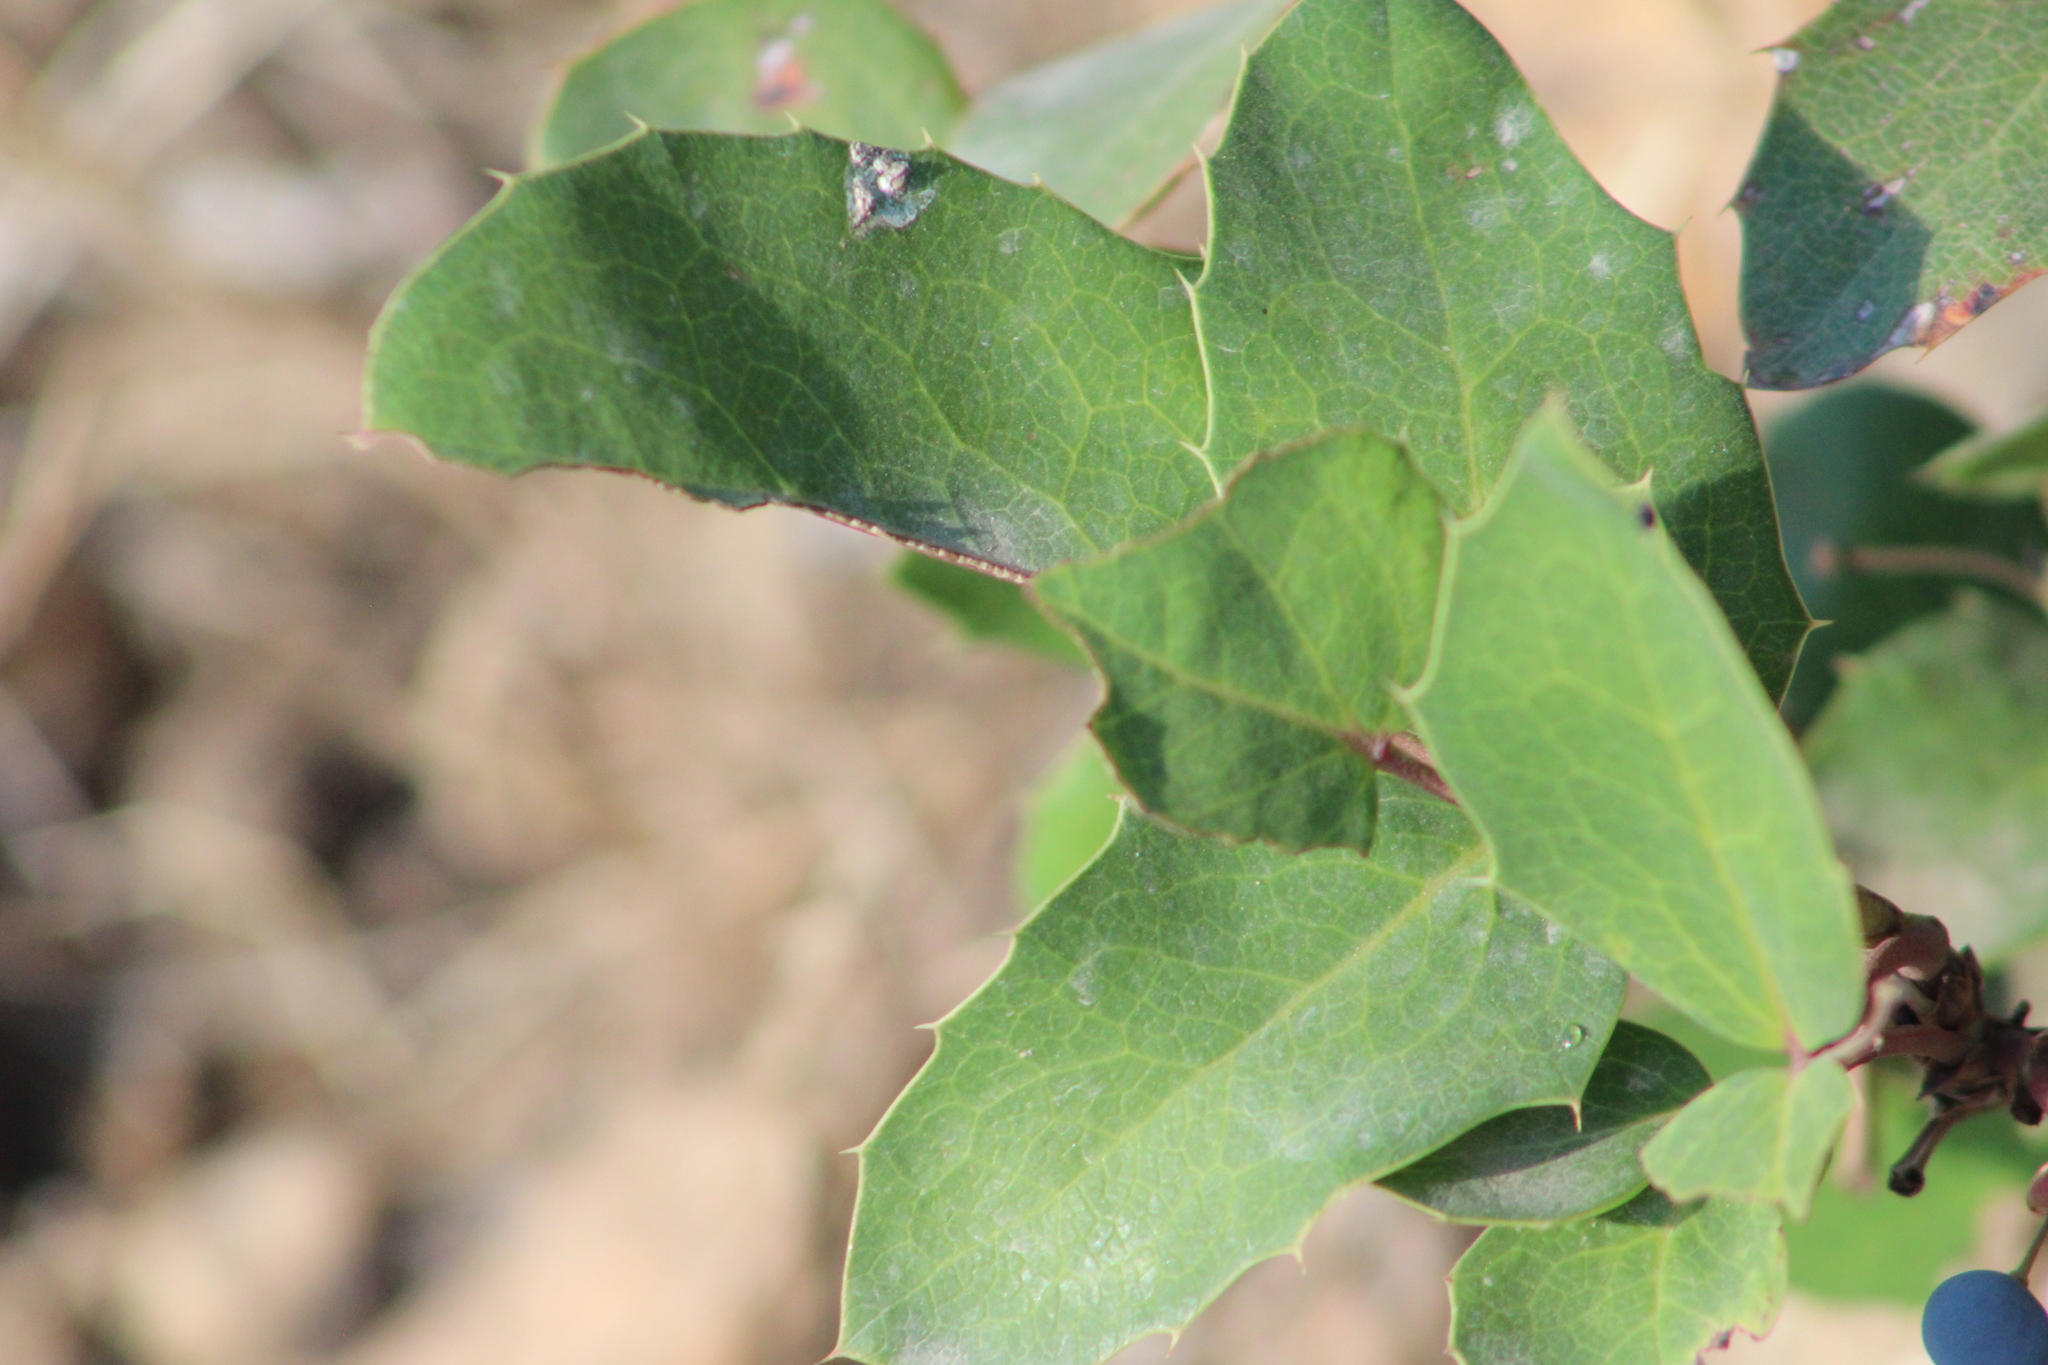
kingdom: Plantae
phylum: Tracheophyta
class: Magnoliopsida
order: Ranunculales
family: Berberidaceae
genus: Mahonia
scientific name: Mahonia repens
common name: Creeping oregon-grape
